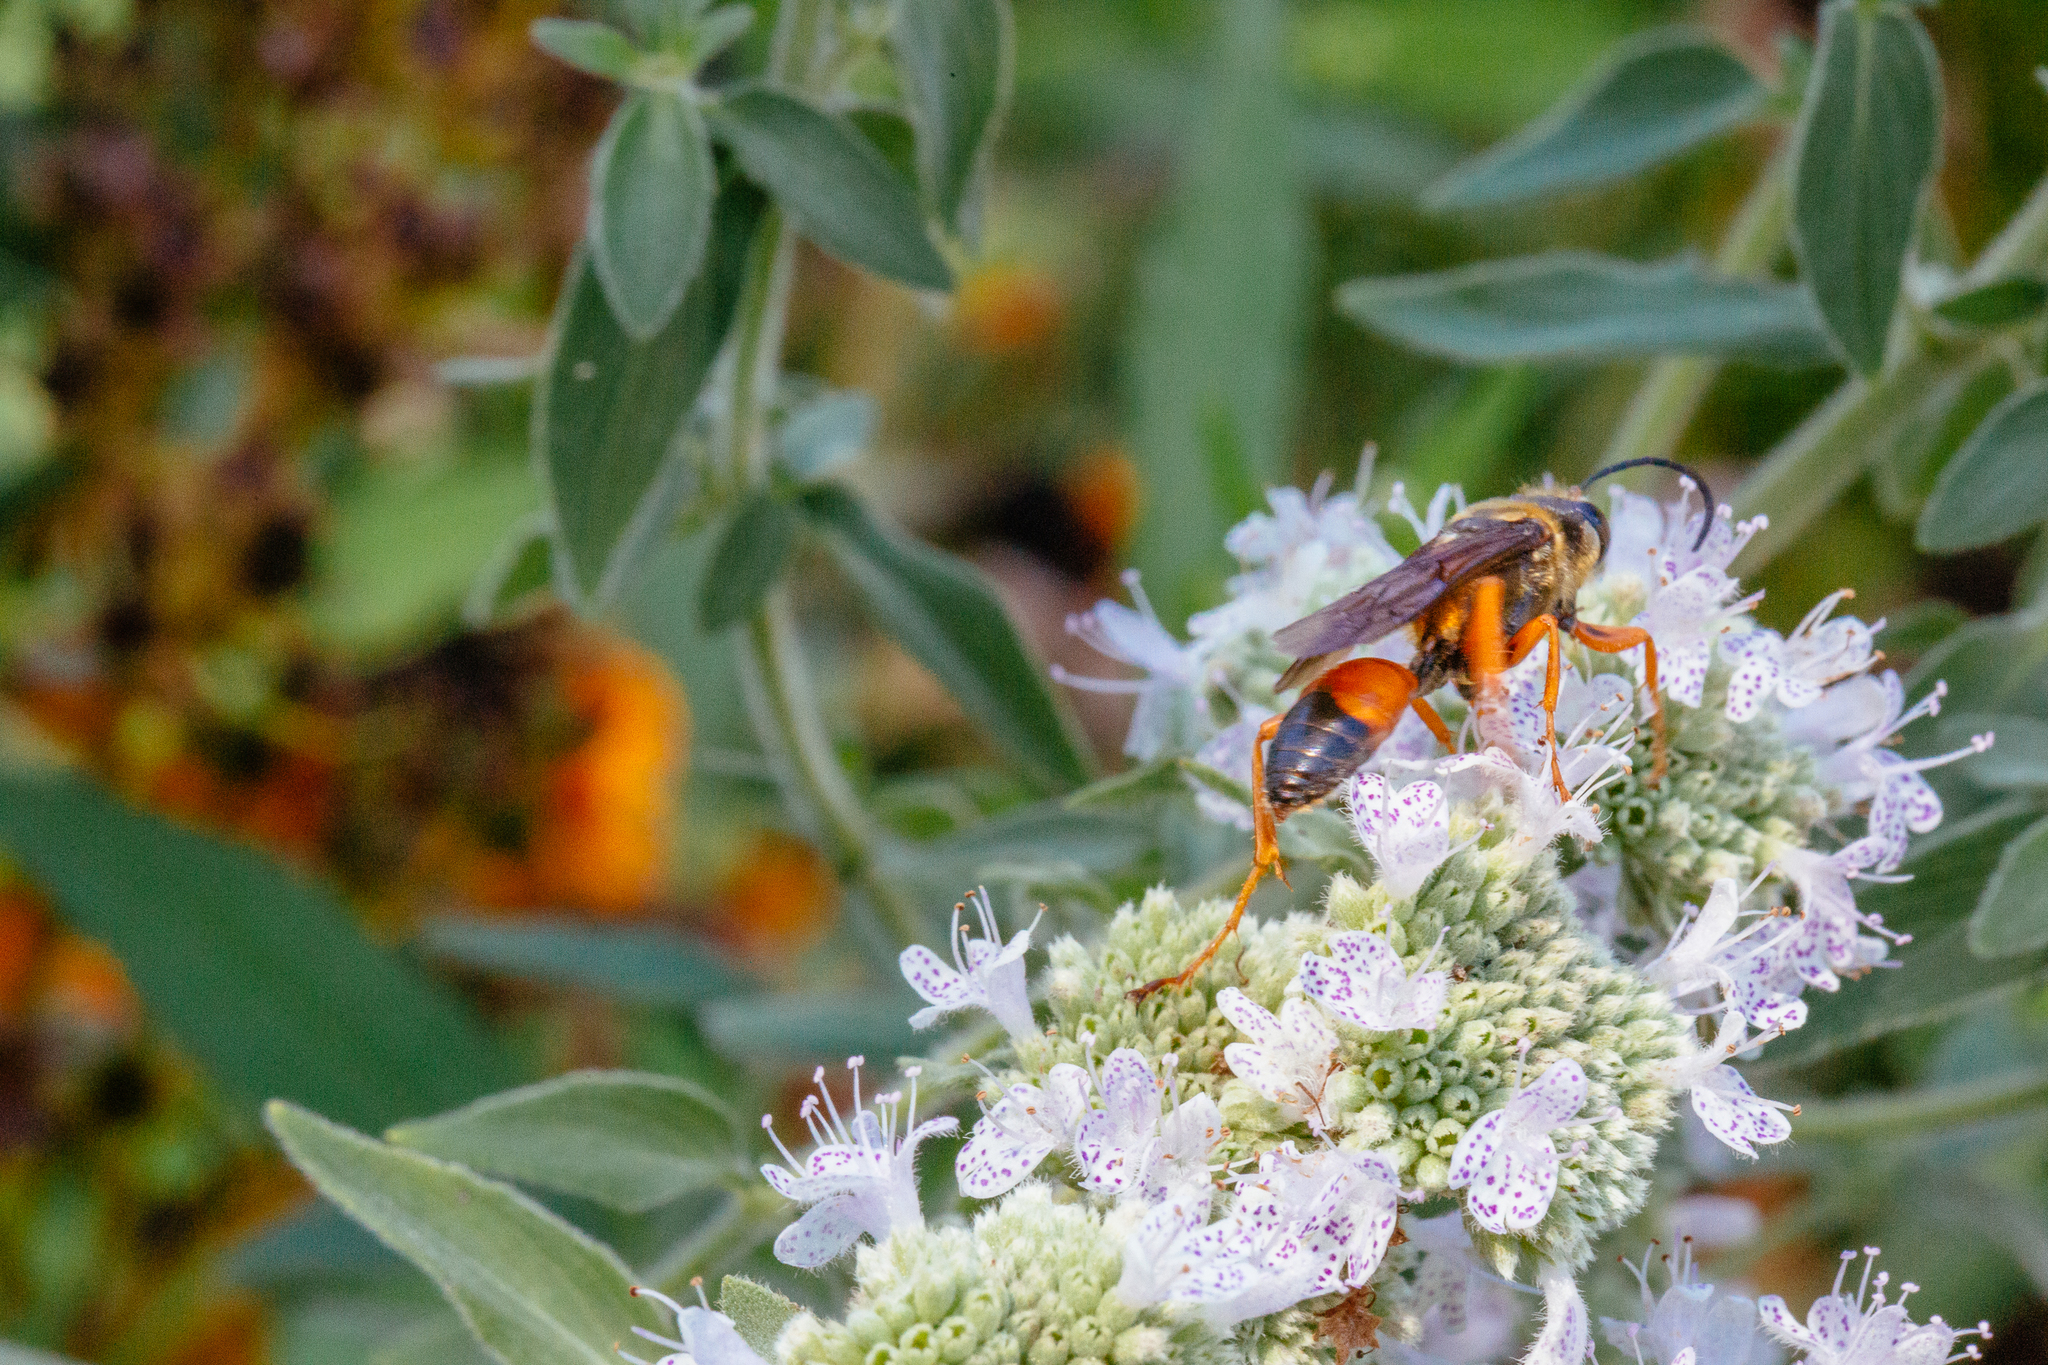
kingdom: Animalia
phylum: Arthropoda
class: Insecta
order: Hymenoptera
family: Sphecidae
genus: Sphex
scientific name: Sphex ichneumoneus
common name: Great golden digger wasp
